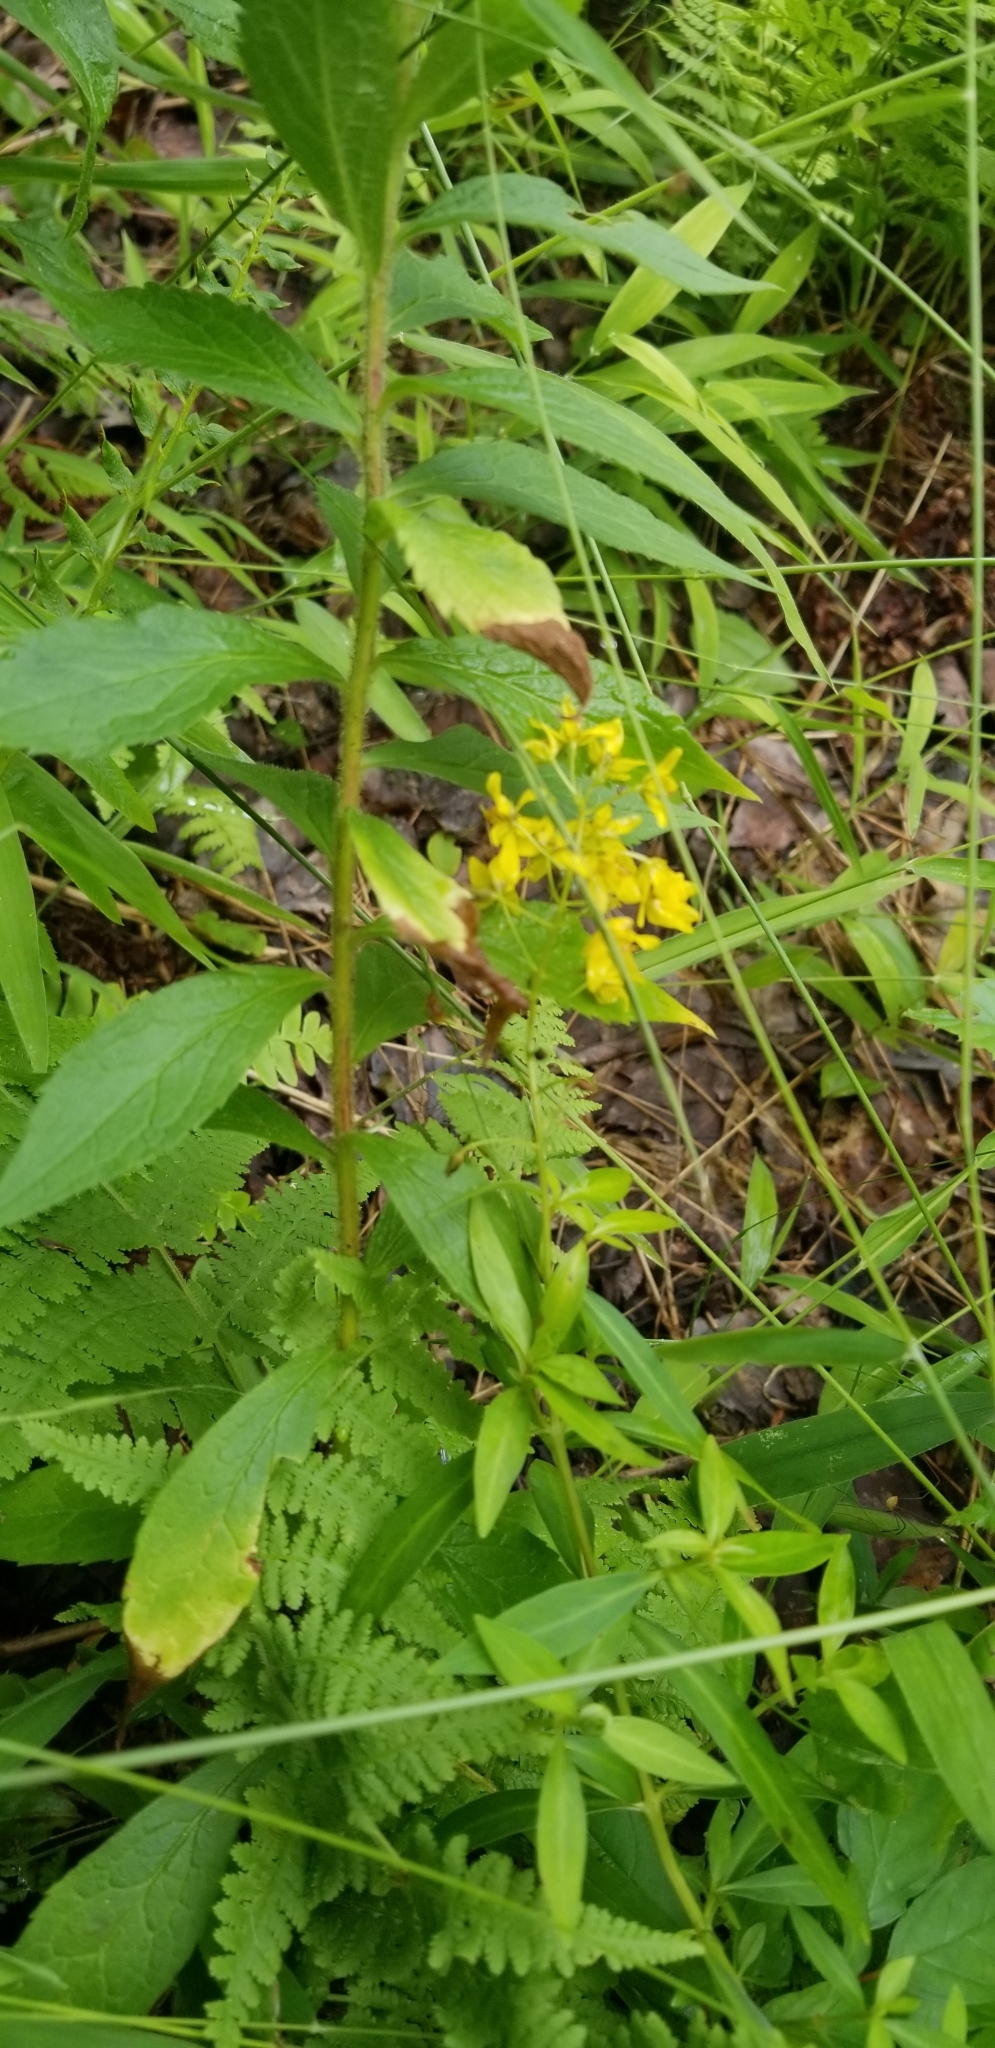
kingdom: Plantae
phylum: Tracheophyta
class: Magnoliopsida
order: Ericales
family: Primulaceae
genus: Lysimachia
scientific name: Lysimachia terrestris
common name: Lake loosestrife
